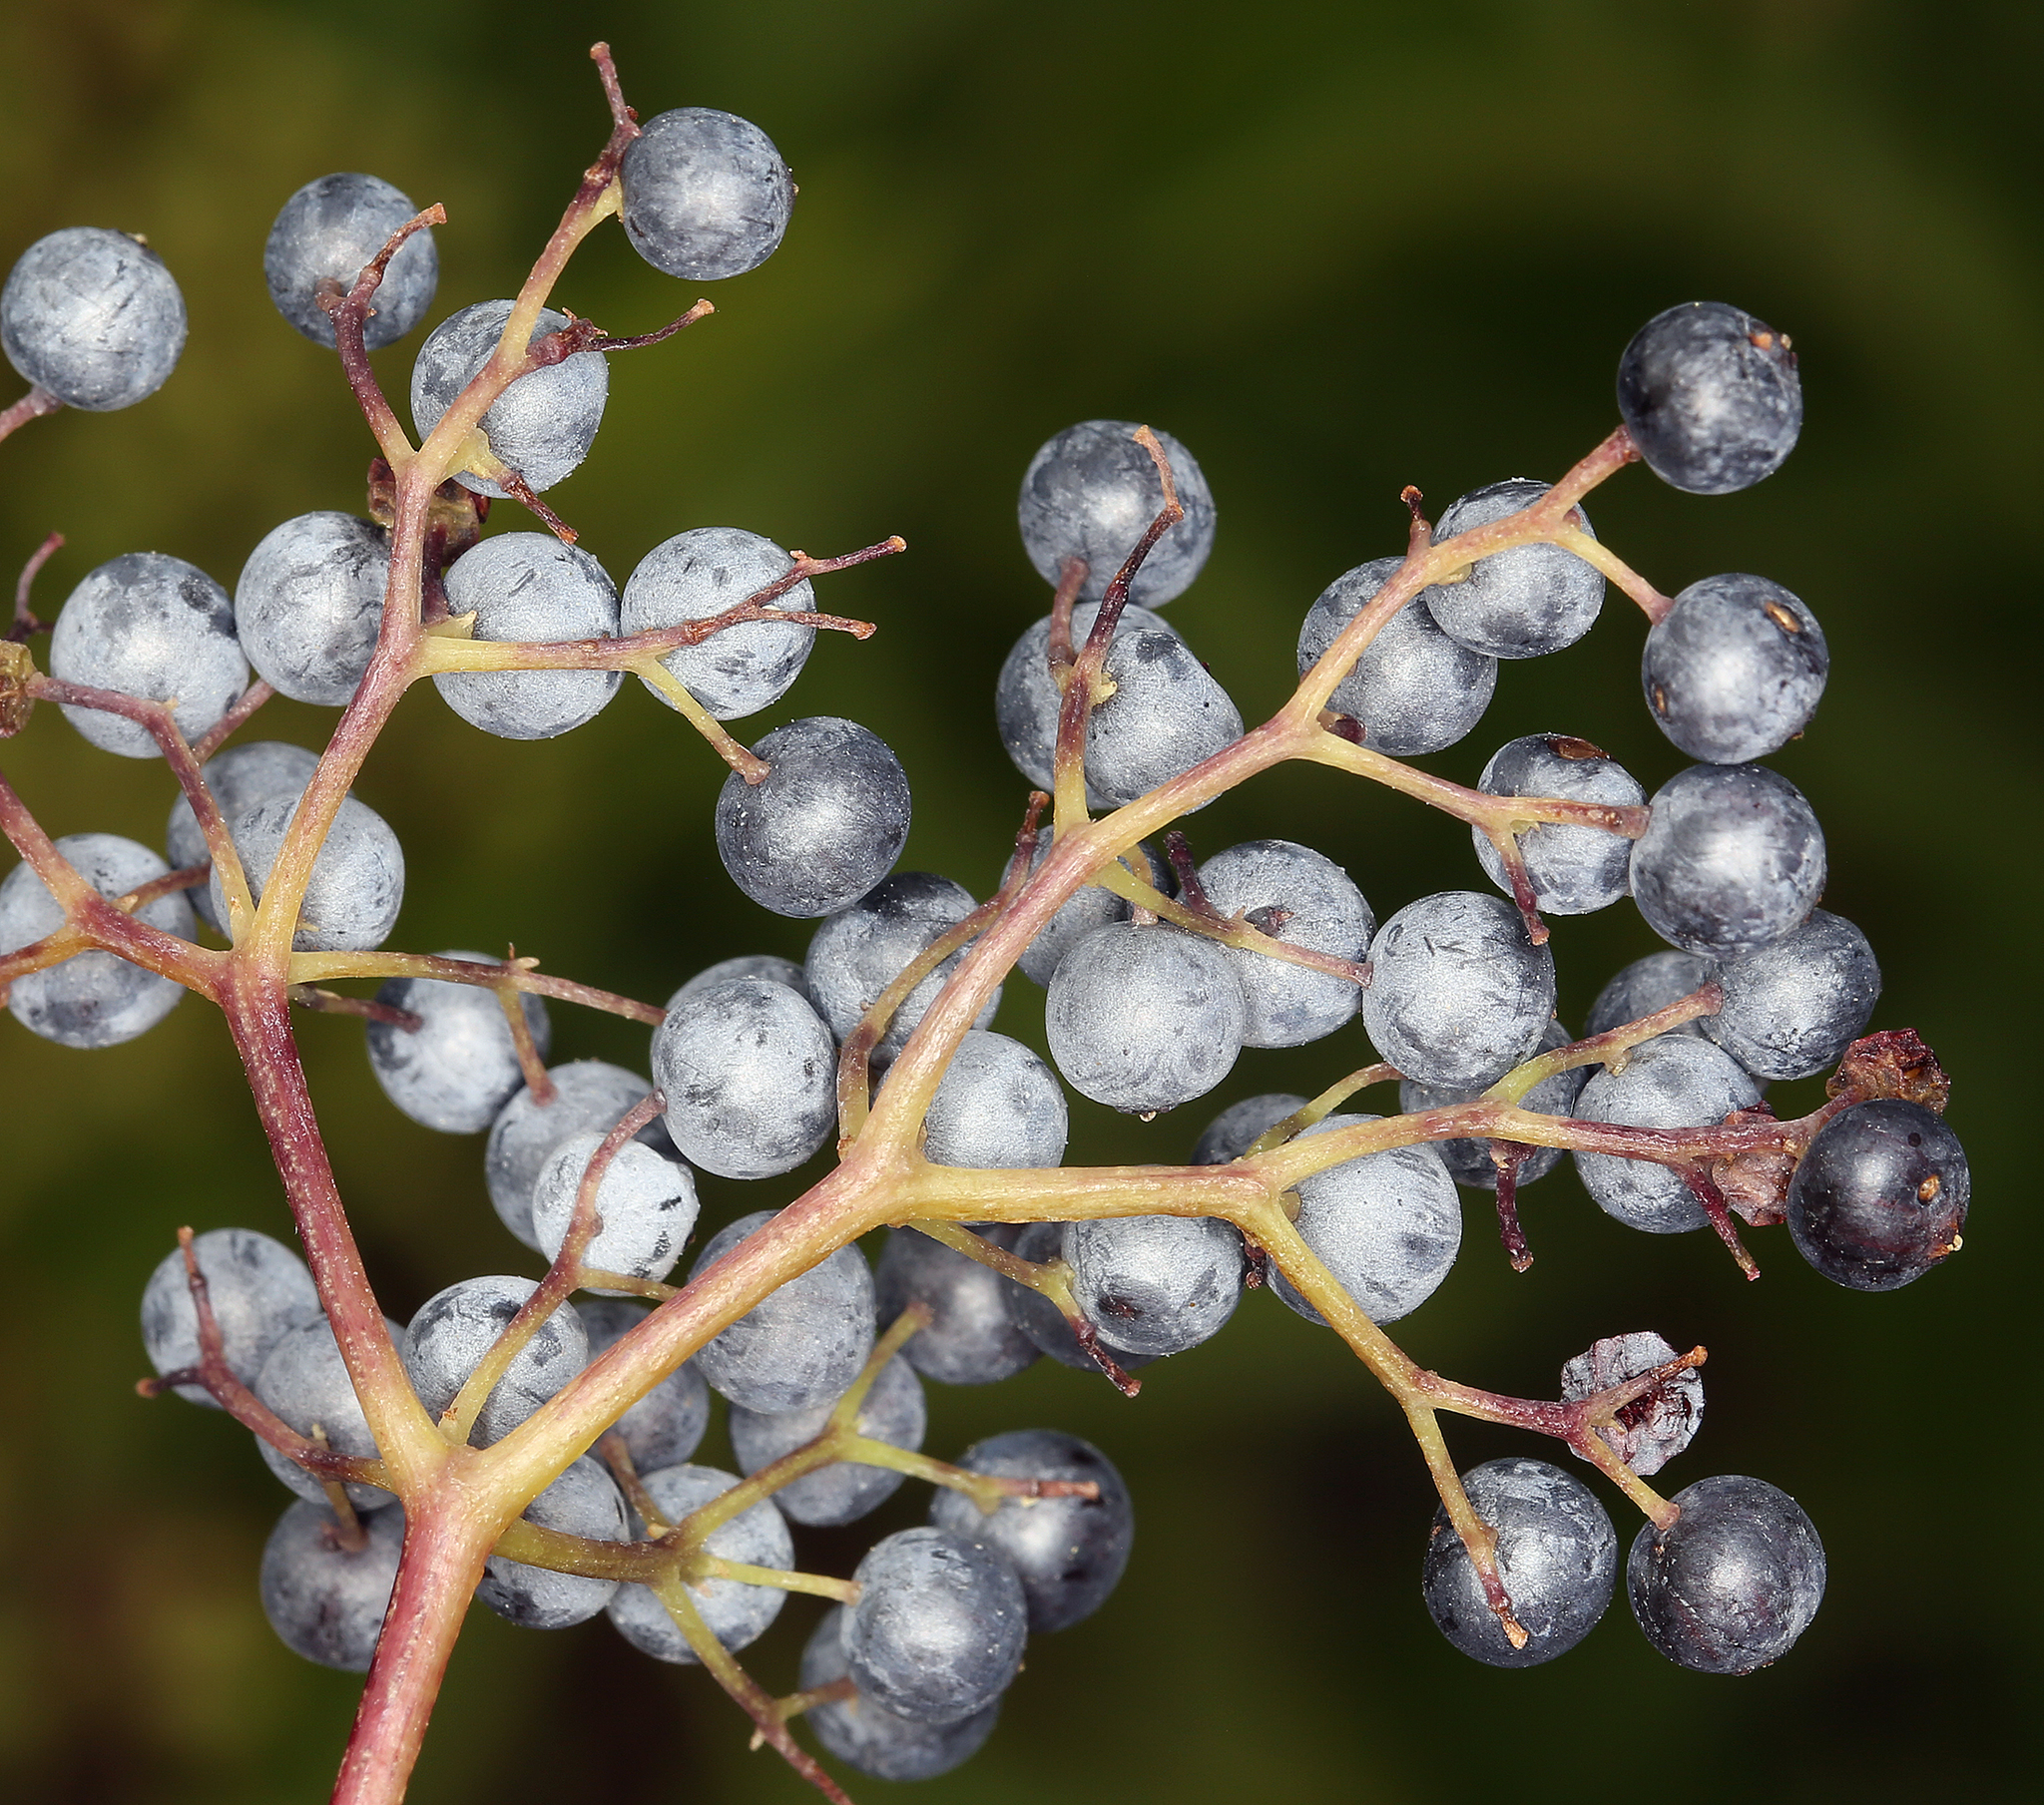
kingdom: Plantae
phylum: Tracheophyta
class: Magnoliopsida
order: Dipsacales
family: Viburnaceae
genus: Sambucus
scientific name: Sambucus cerulea
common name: Blue elder
